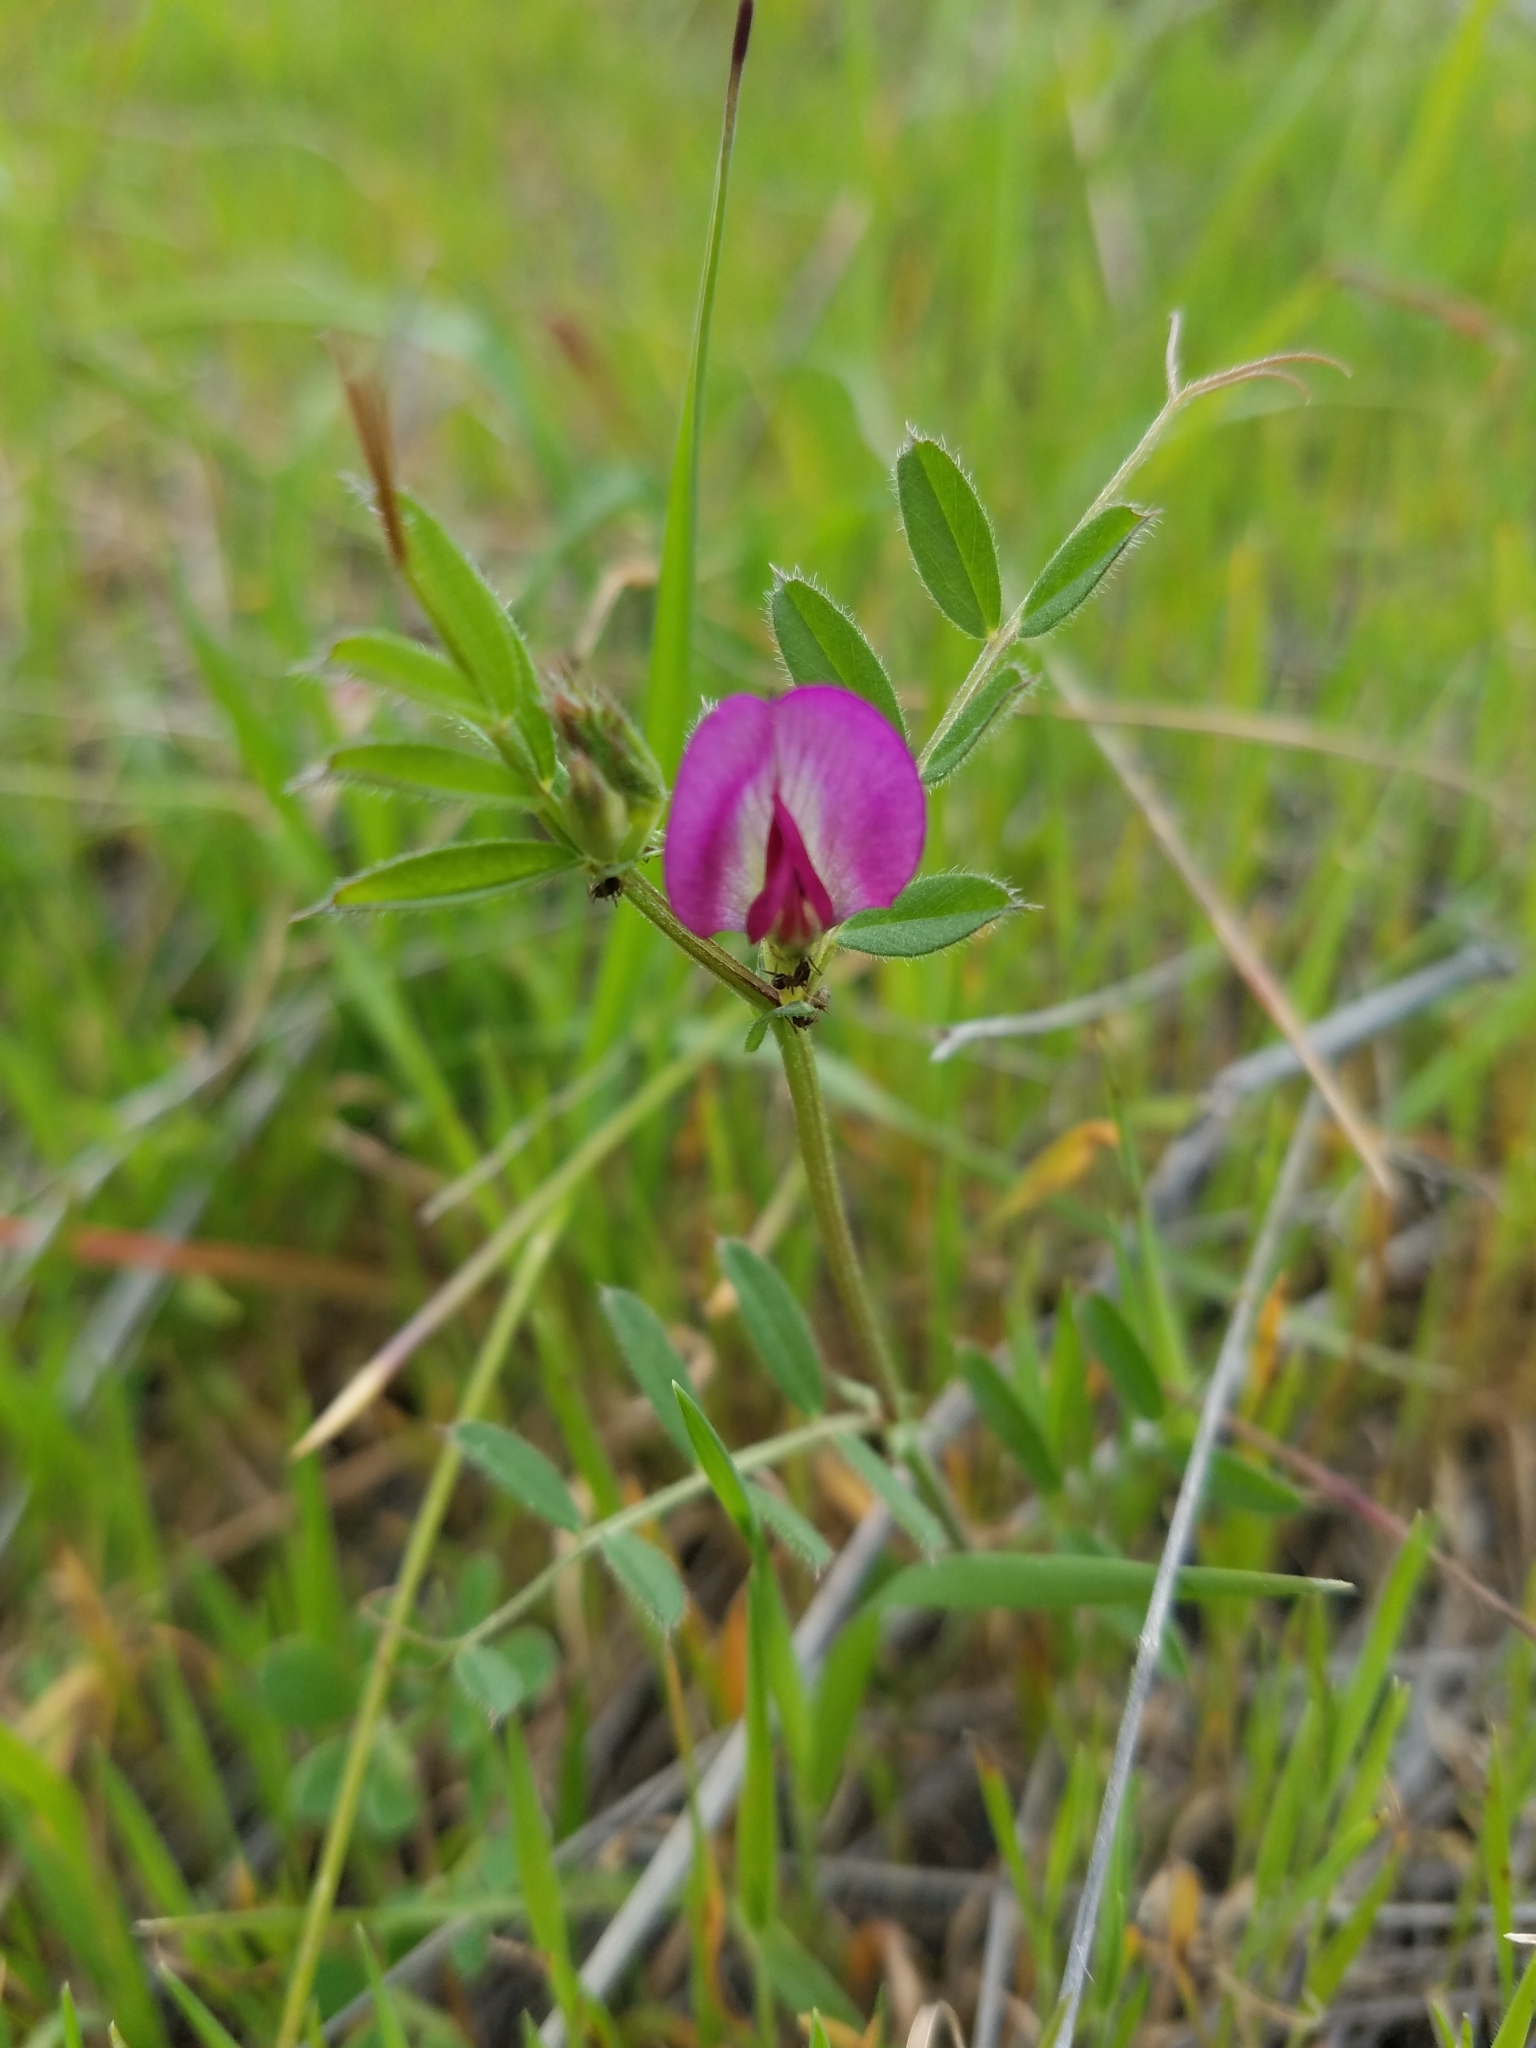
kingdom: Plantae
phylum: Tracheophyta
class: Magnoliopsida
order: Fabales
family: Fabaceae
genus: Vicia
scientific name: Vicia sativa
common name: Garden vetch
